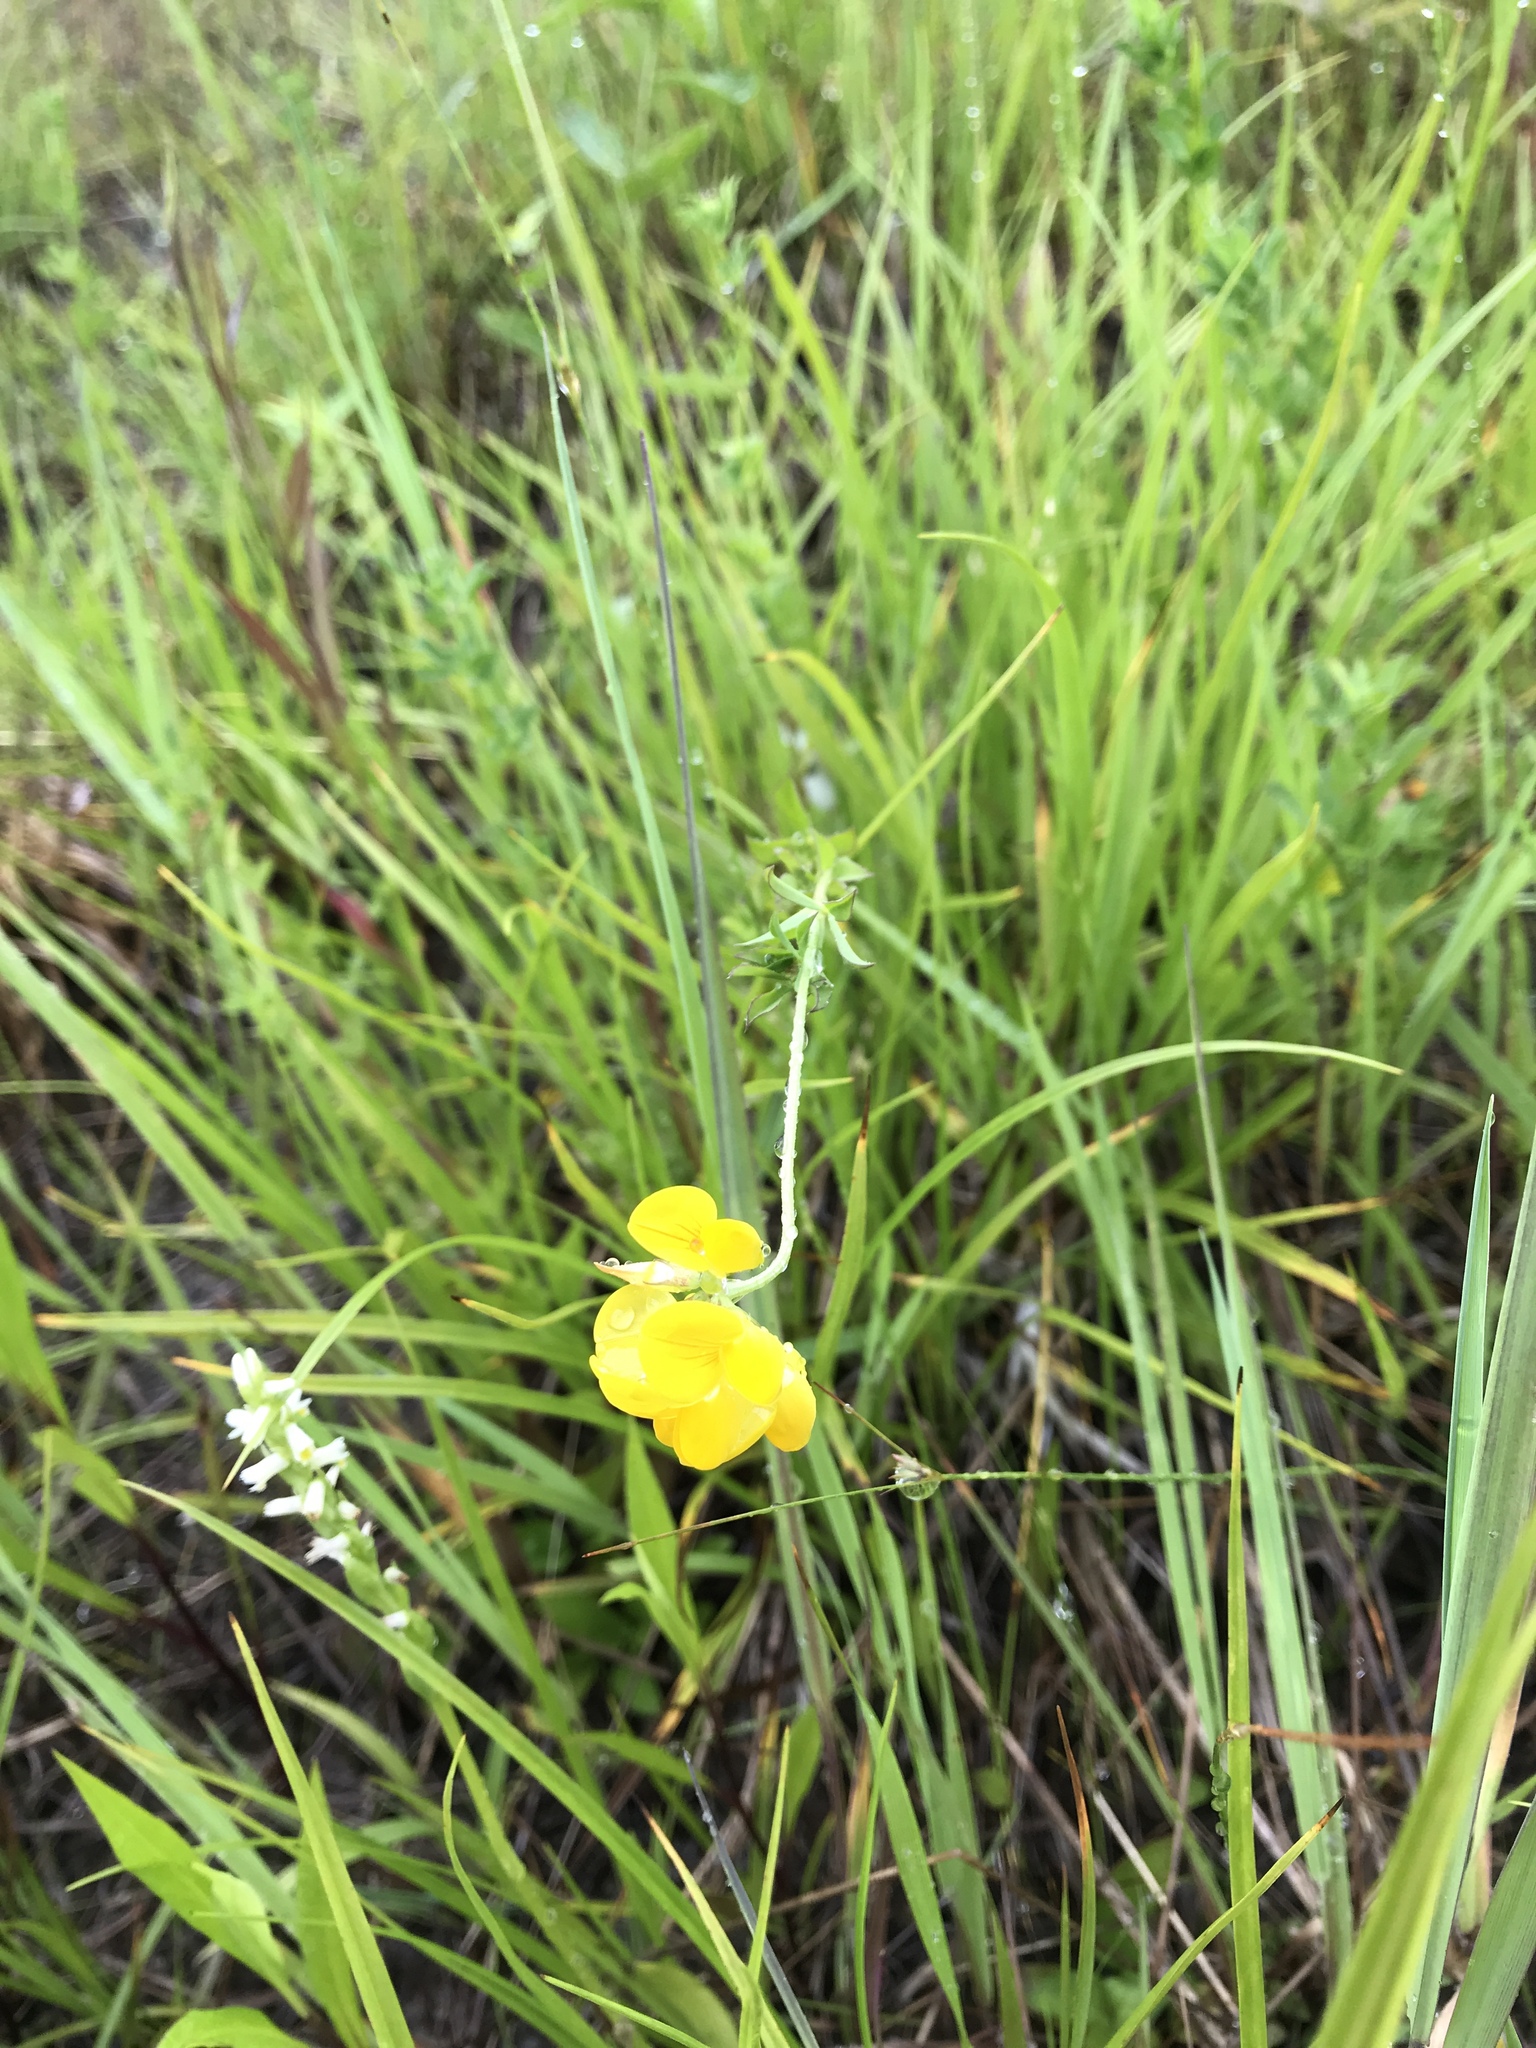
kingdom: Plantae
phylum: Tracheophyta
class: Magnoliopsida
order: Fabales
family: Fabaceae
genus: Lotus
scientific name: Lotus corniculatus
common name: Common bird's-foot-trefoil
